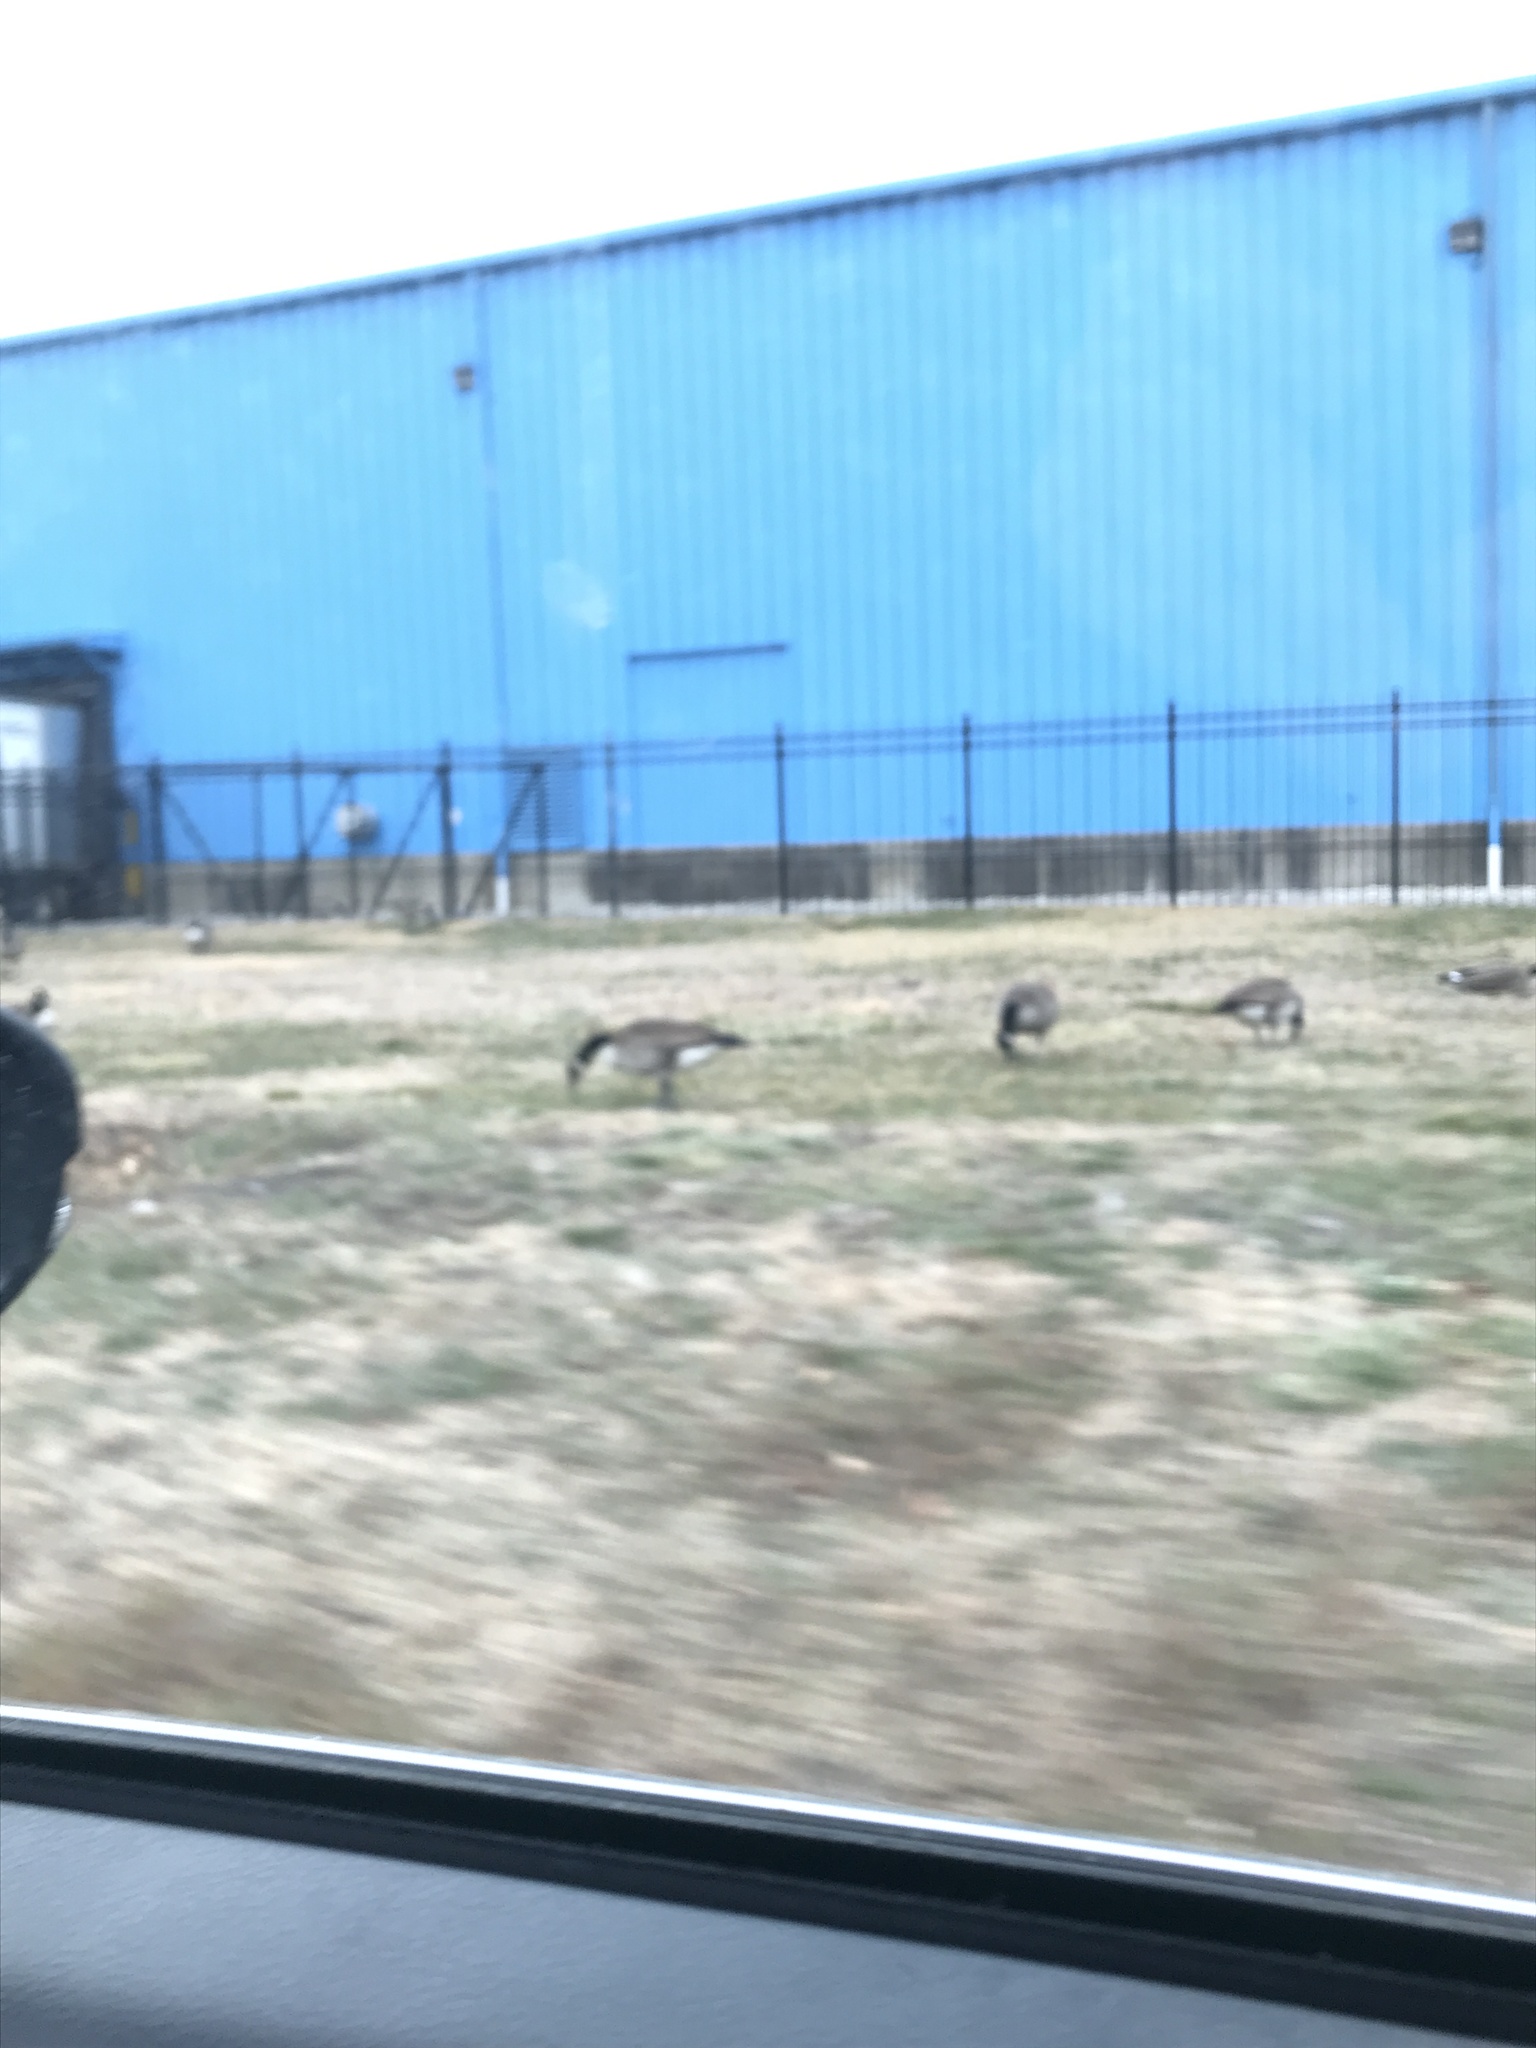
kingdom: Animalia
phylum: Chordata
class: Aves
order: Anseriformes
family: Anatidae
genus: Branta
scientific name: Branta canadensis
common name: Canada goose
